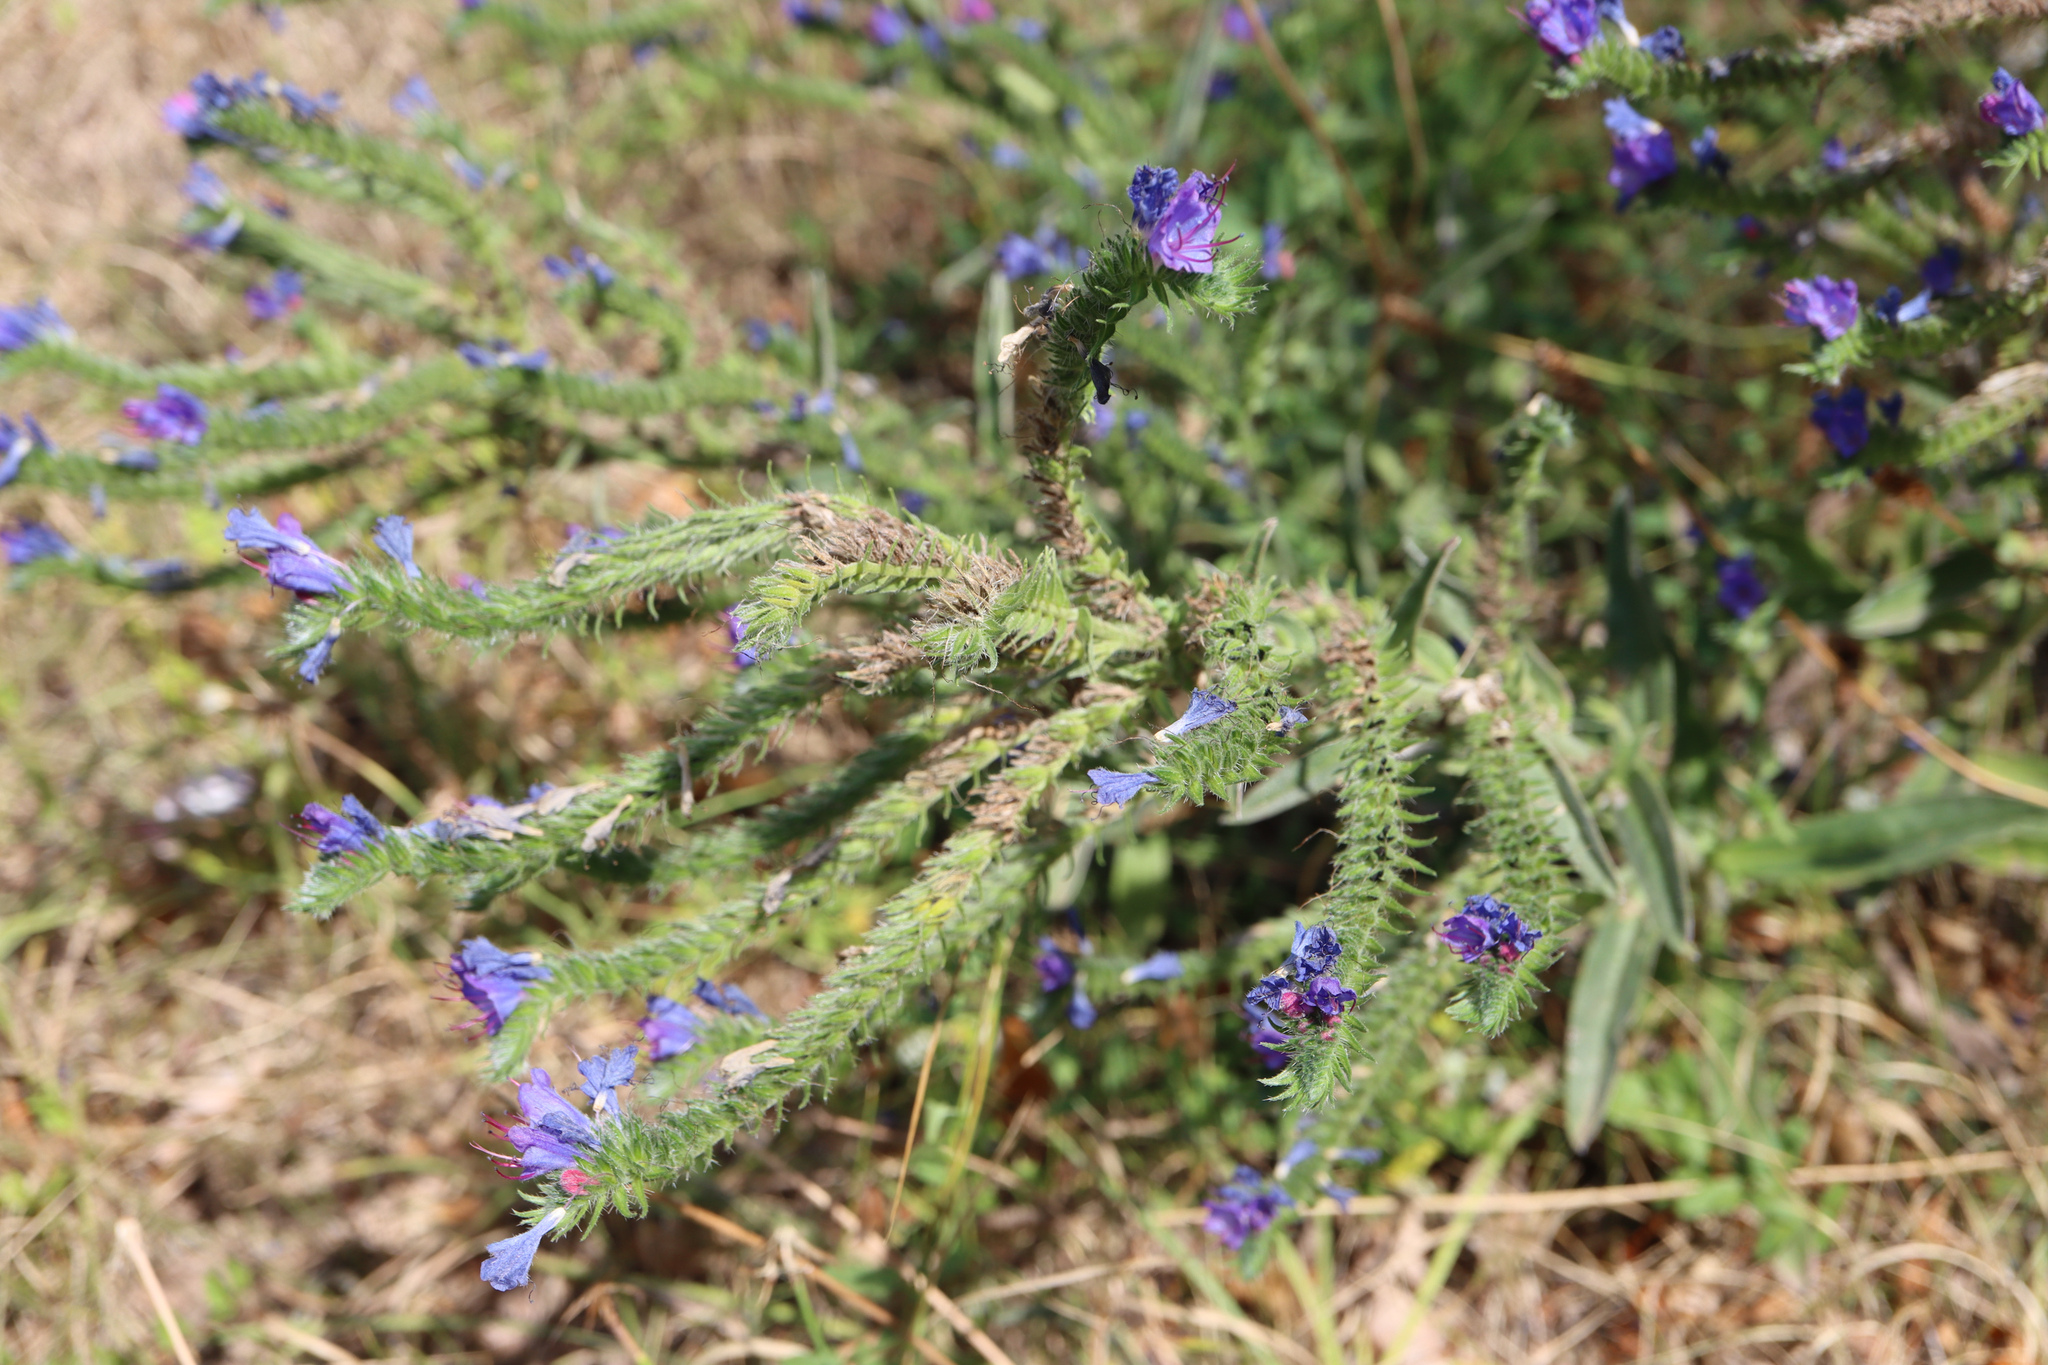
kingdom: Plantae
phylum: Tracheophyta
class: Magnoliopsida
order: Boraginales
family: Boraginaceae
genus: Echium
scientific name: Echium vulgare
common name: Common viper's bugloss
